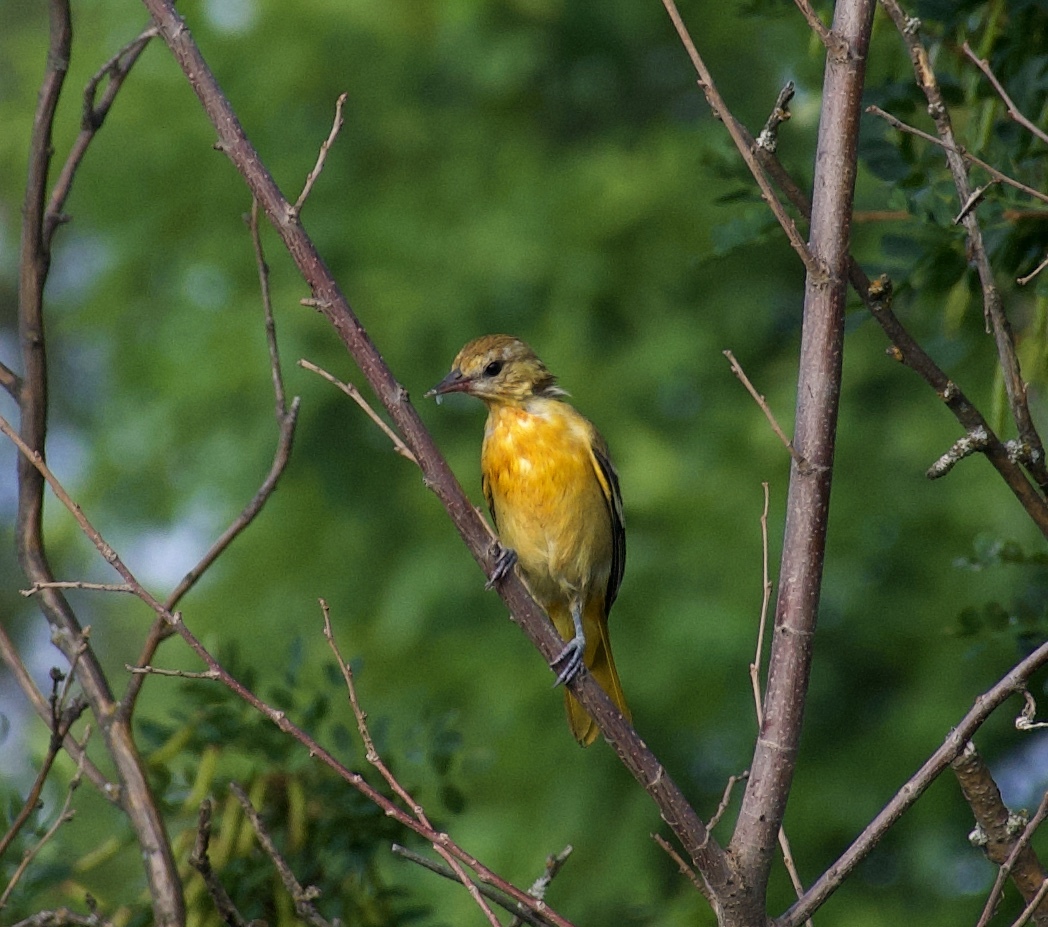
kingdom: Animalia
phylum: Chordata
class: Aves
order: Passeriformes
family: Icteridae
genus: Icterus
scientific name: Icterus galbula
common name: Baltimore oriole
